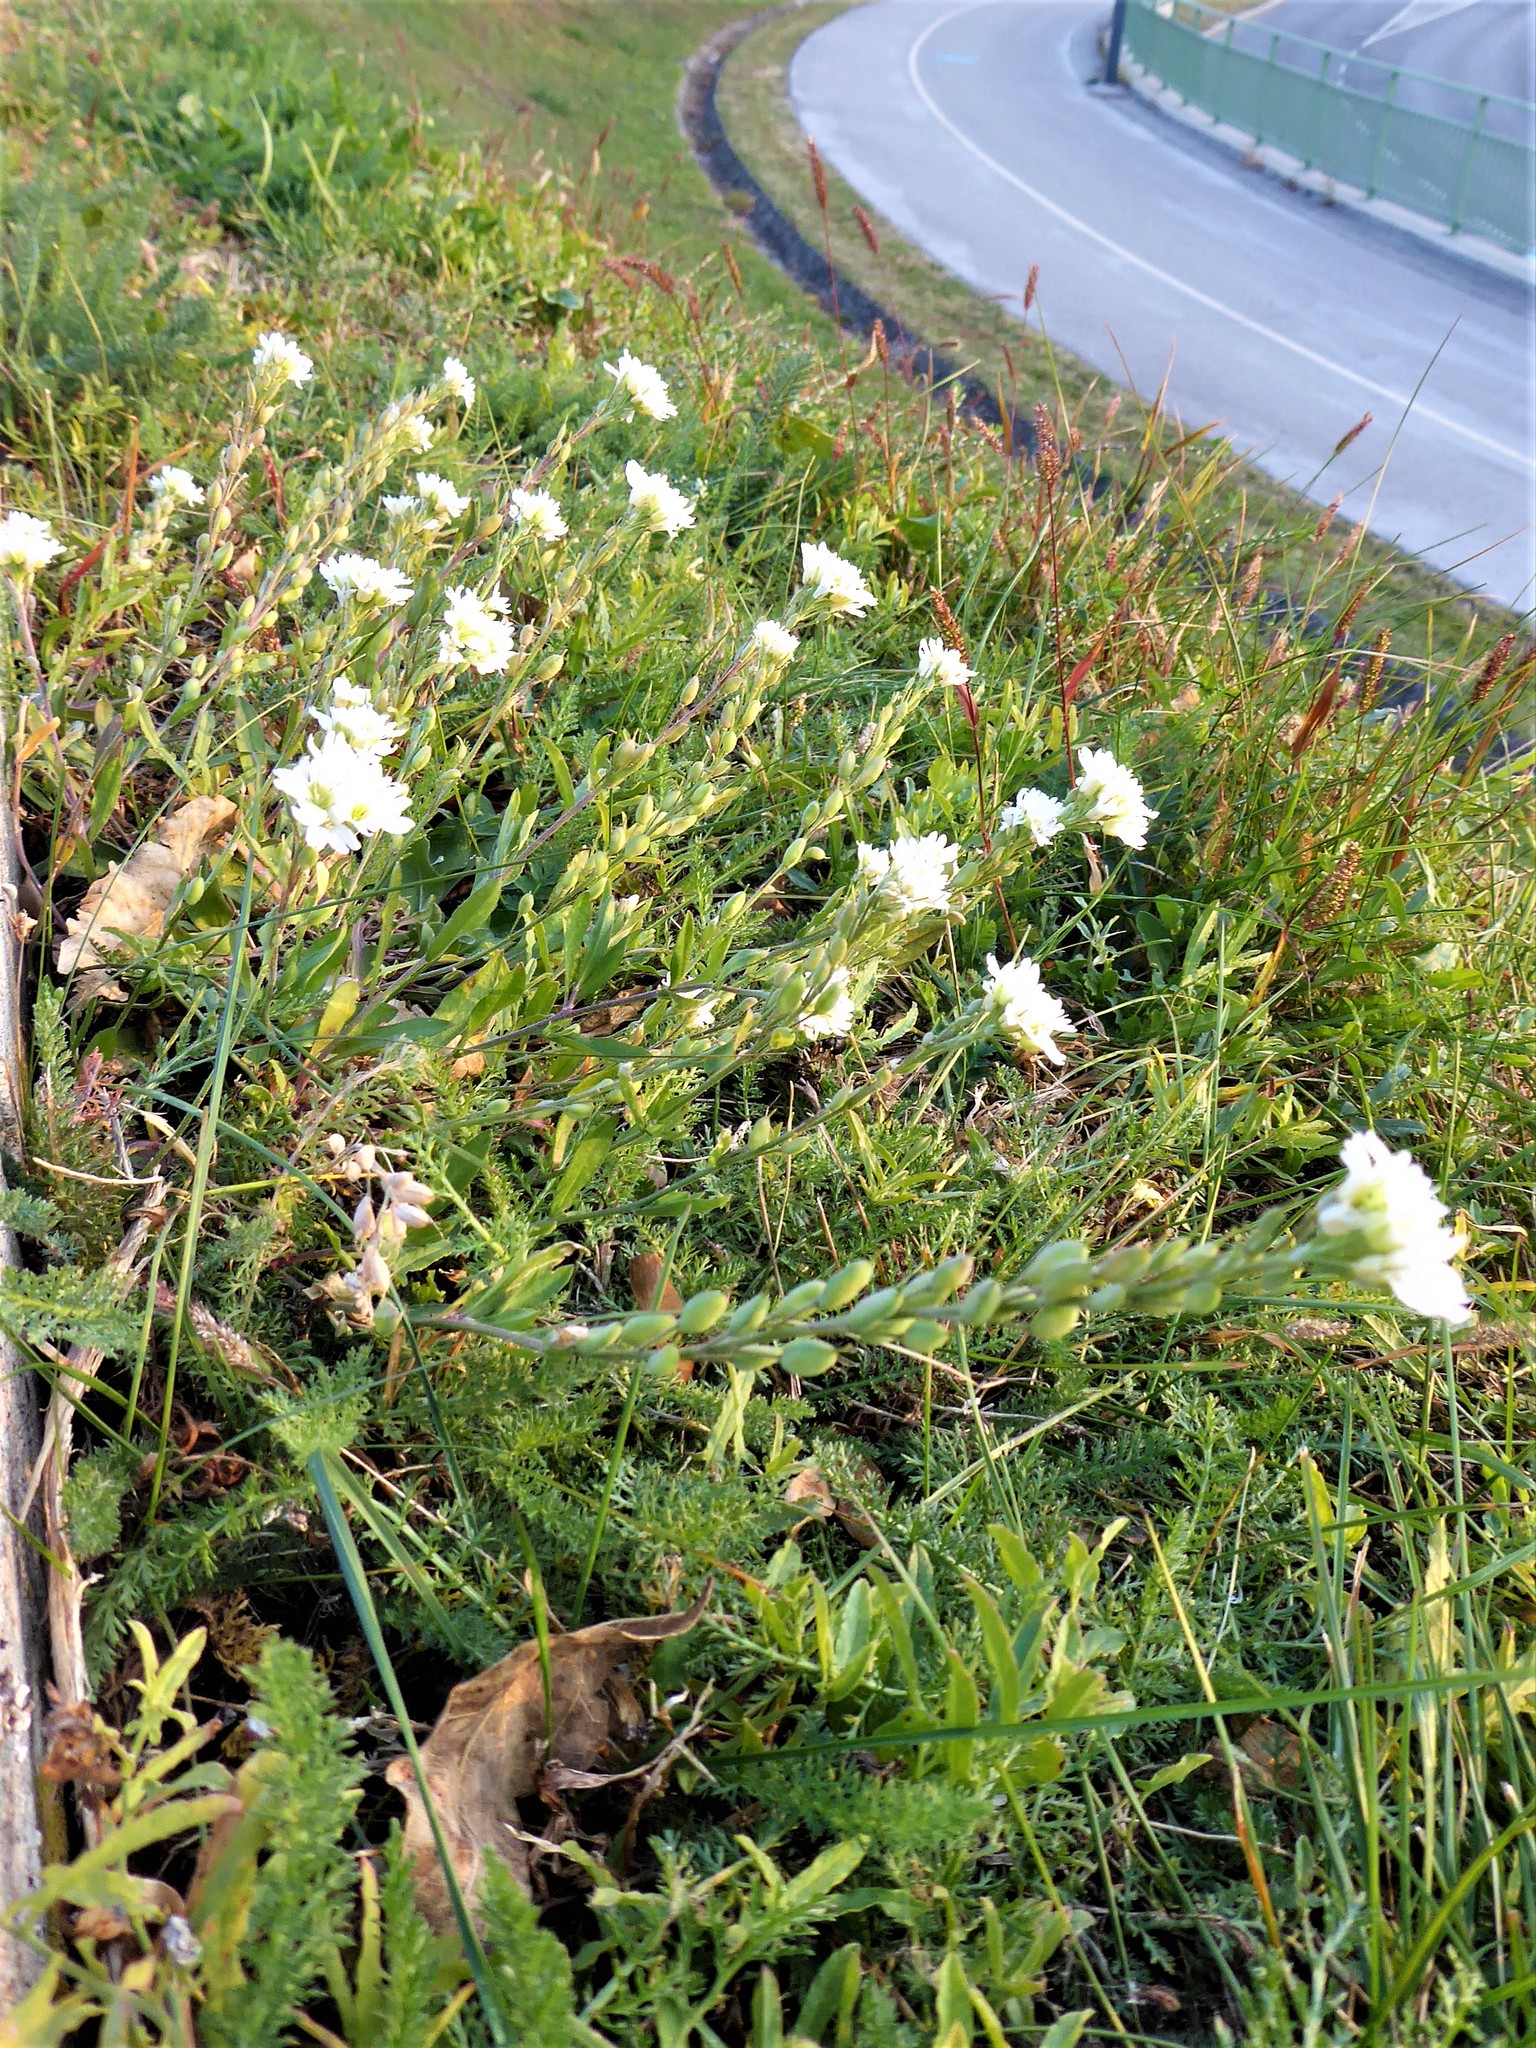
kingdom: Plantae
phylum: Tracheophyta
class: Magnoliopsida
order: Brassicales
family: Brassicaceae
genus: Berteroa
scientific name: Berteroa incana
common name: Hoary alison
